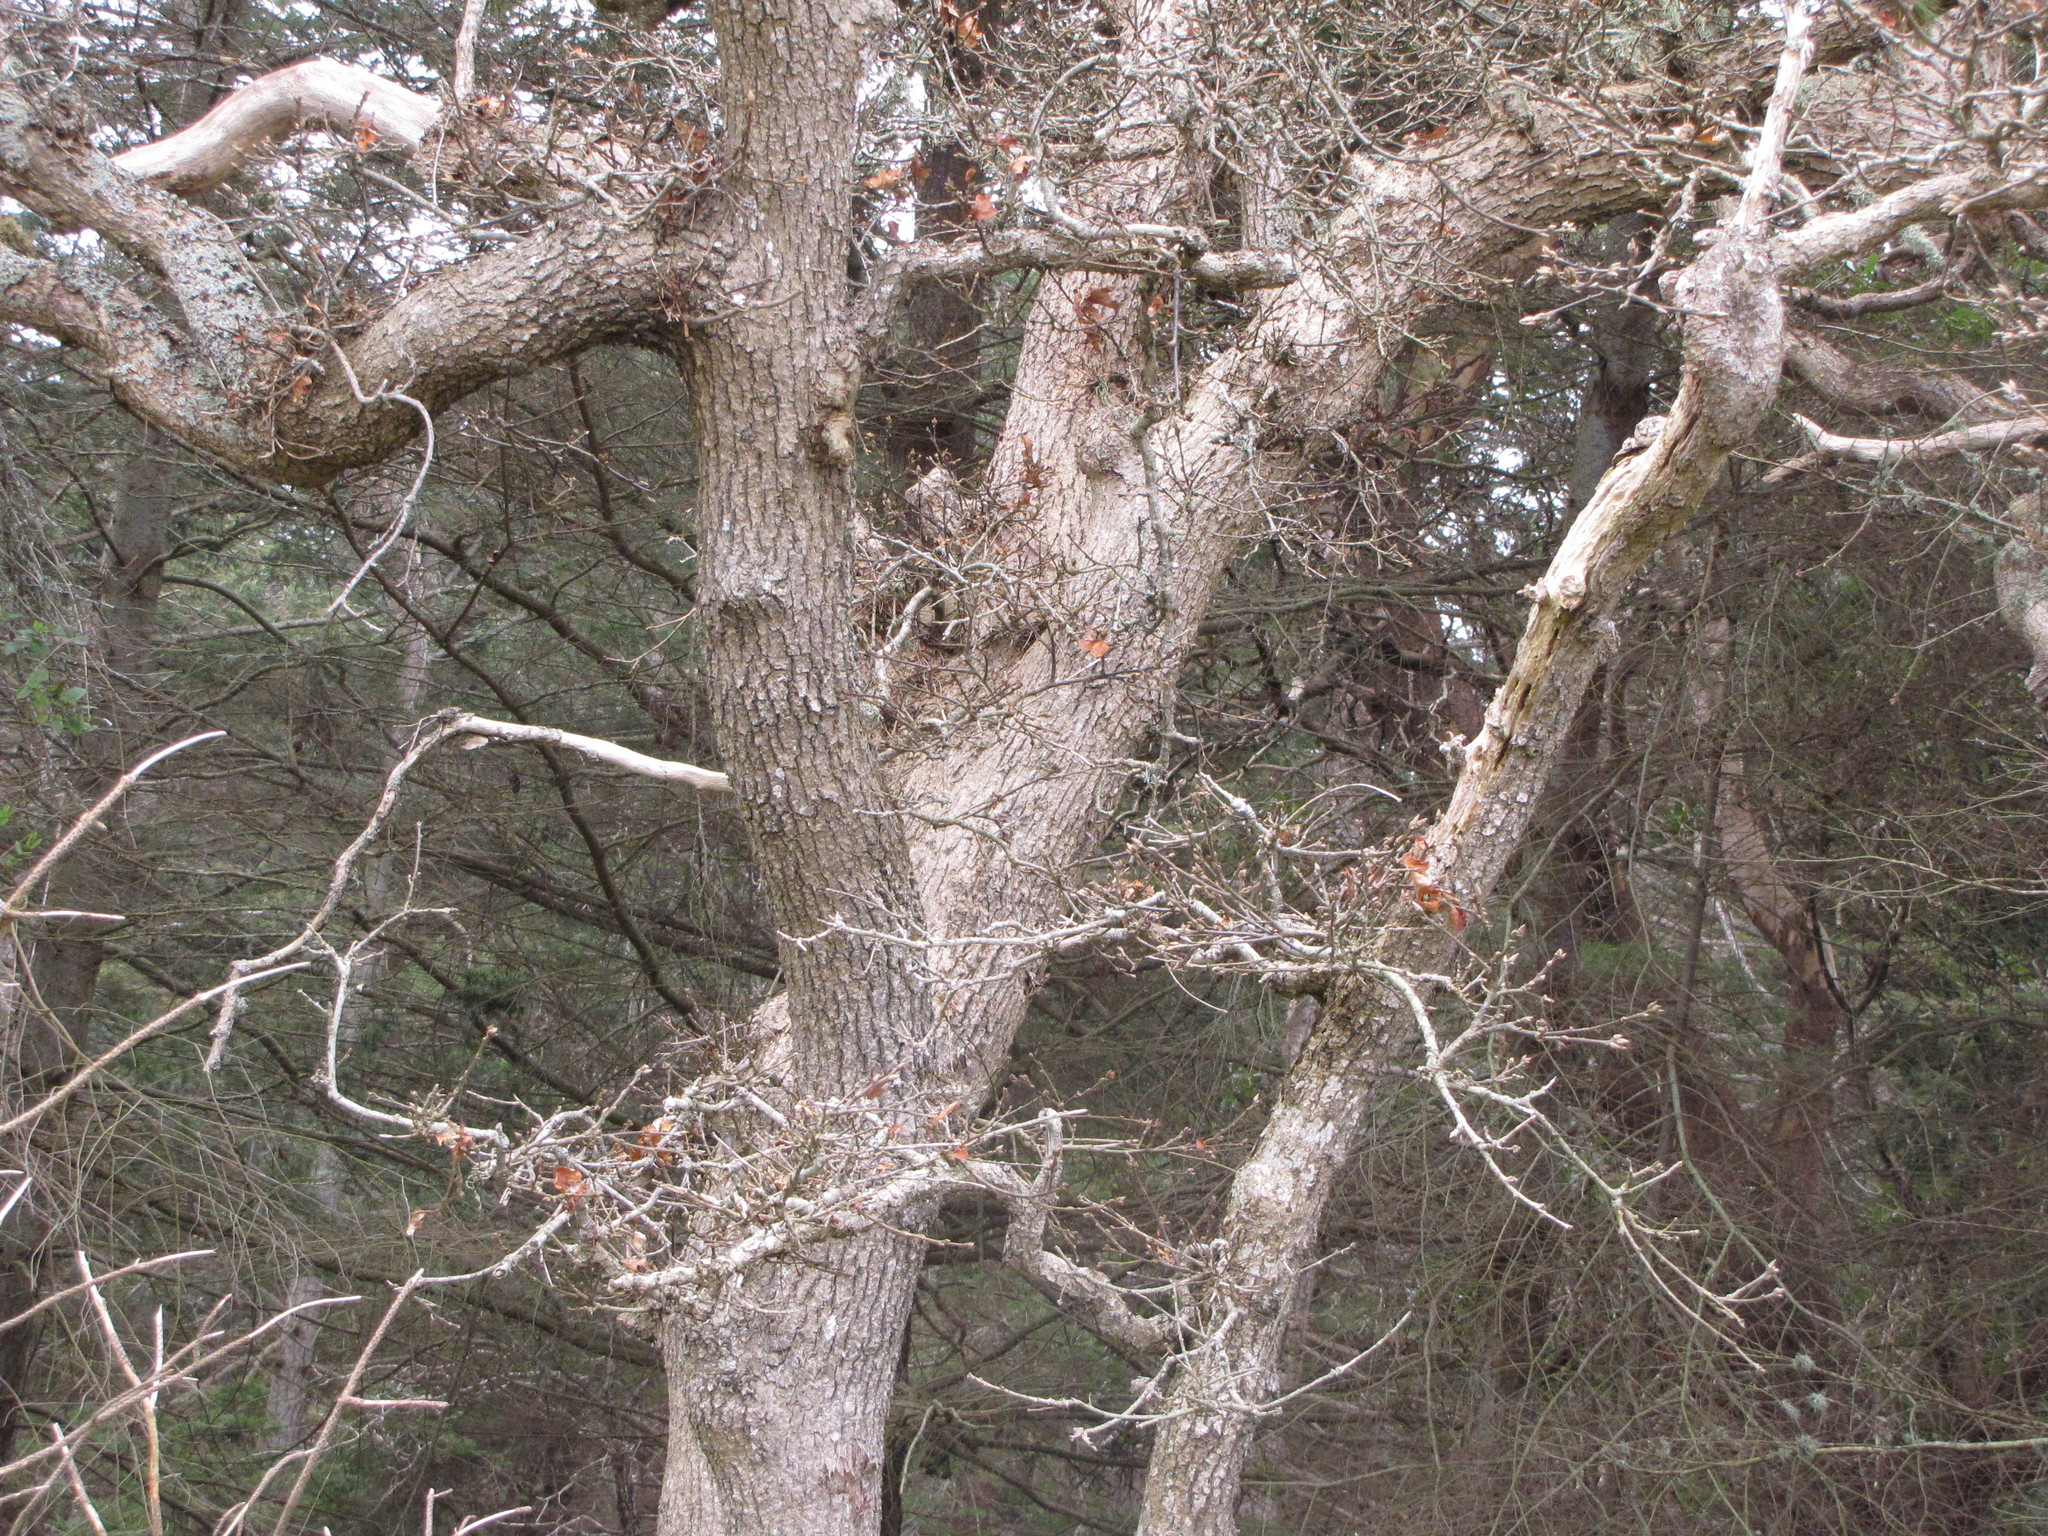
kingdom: Plantae
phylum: Tracheophyta
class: Magnoliopsida
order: Fagales
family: Fagaceae
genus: Quercus
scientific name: Quercus garryana
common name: Garry oak
